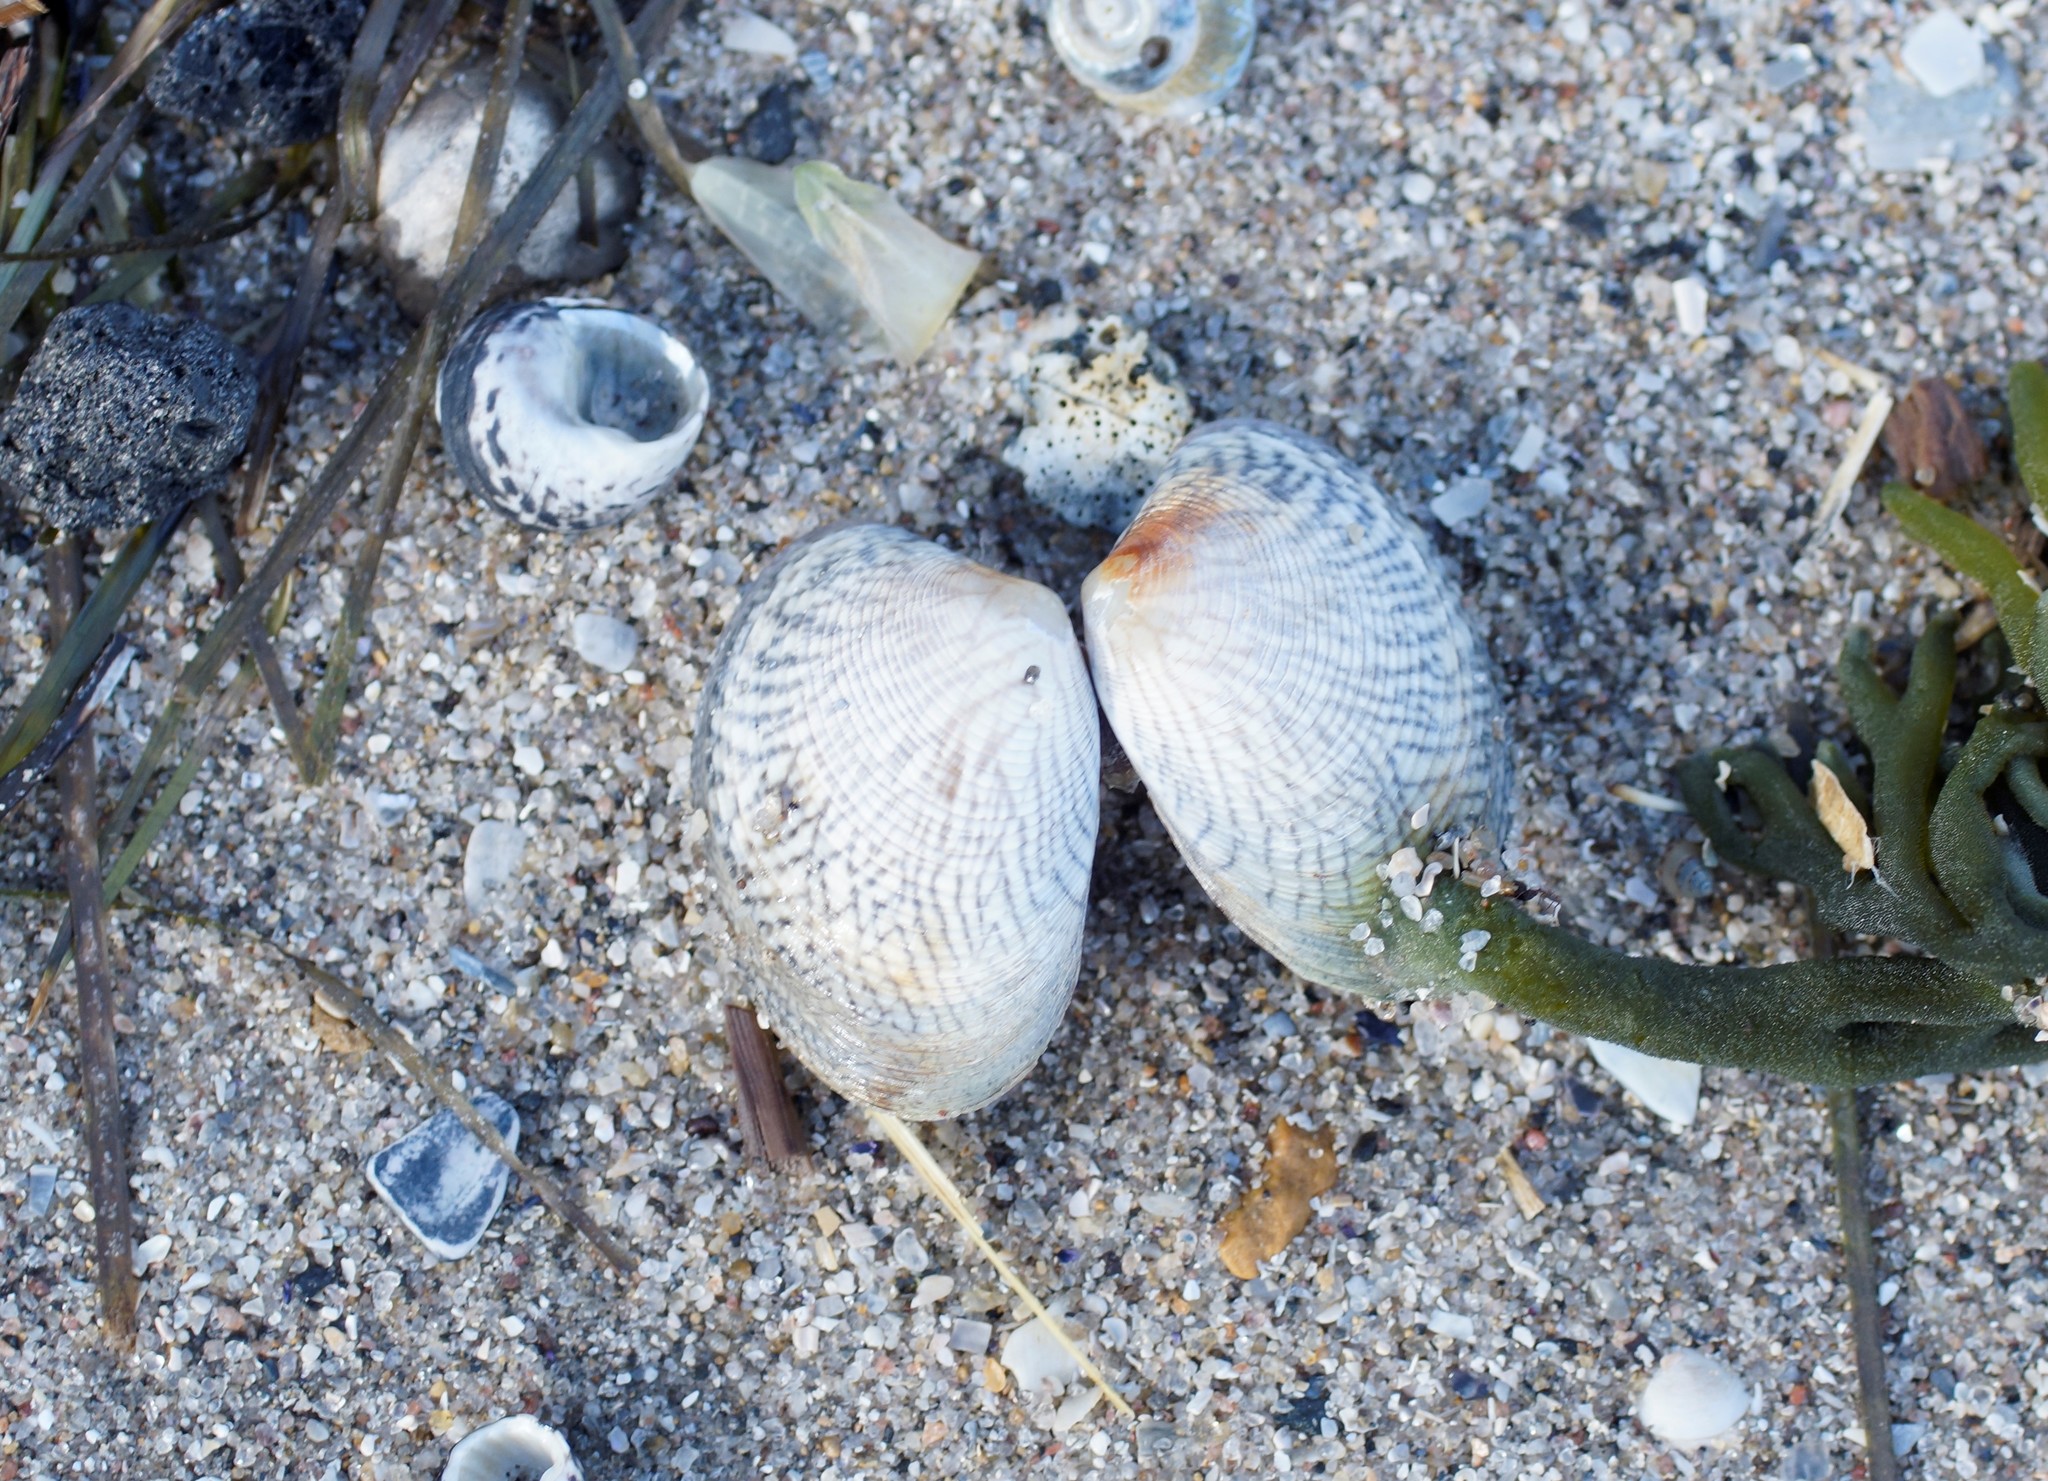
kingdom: Animalia
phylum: Mollusca
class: Bivalvia
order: Venerida
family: Veneridae
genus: Katelysia
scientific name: Katelysia rhytiphora
